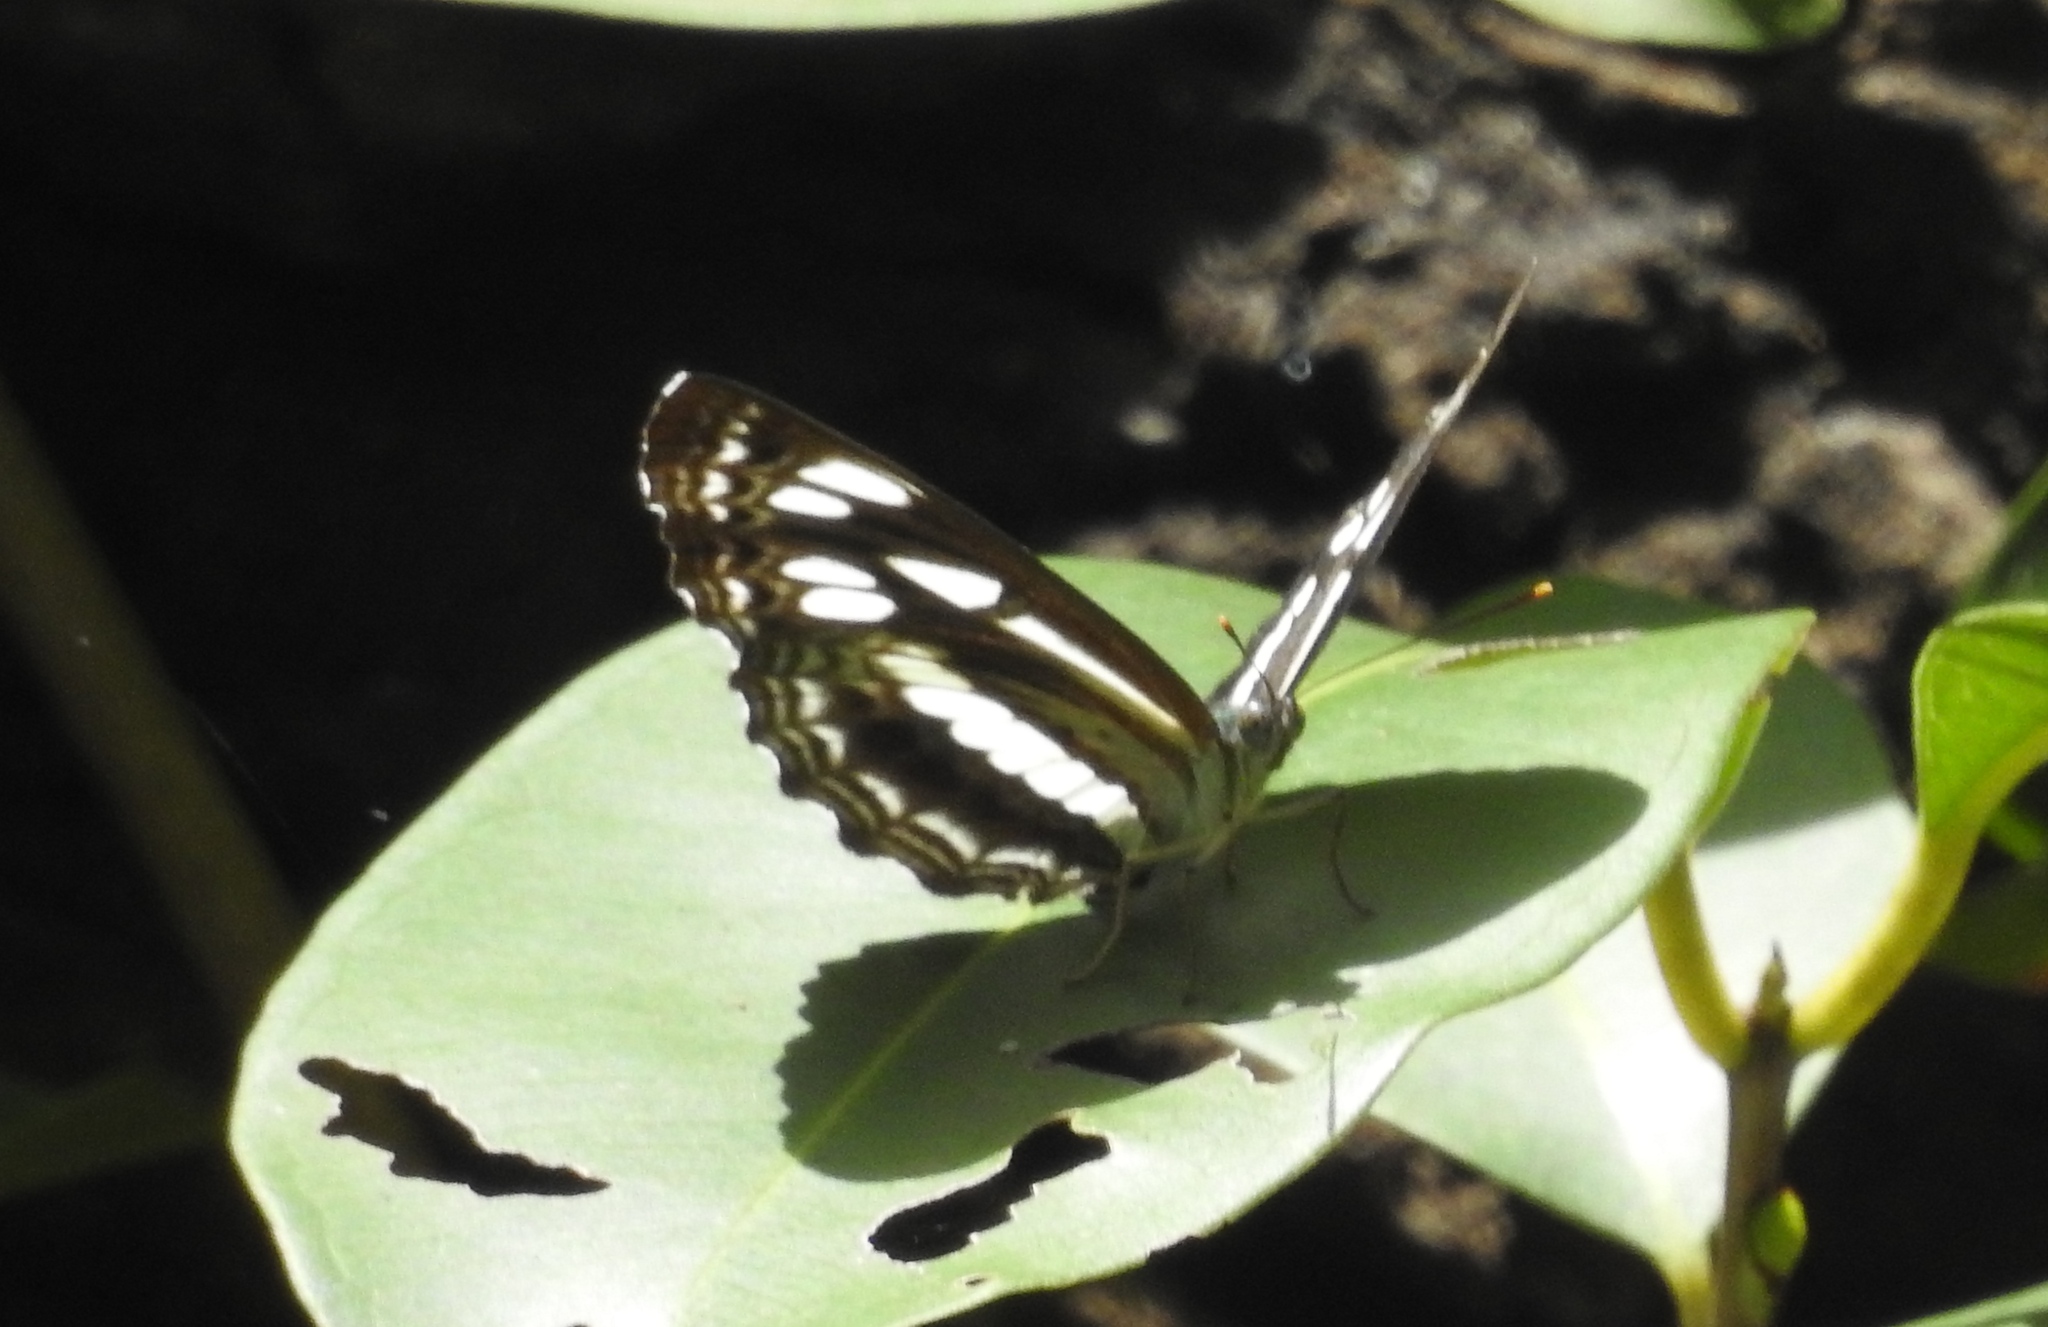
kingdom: Animalia
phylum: Arthropoda
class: Insecta
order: Lepidoptera
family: Nymphalidae
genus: Neptis
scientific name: Neptis hylas
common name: Common sailer
